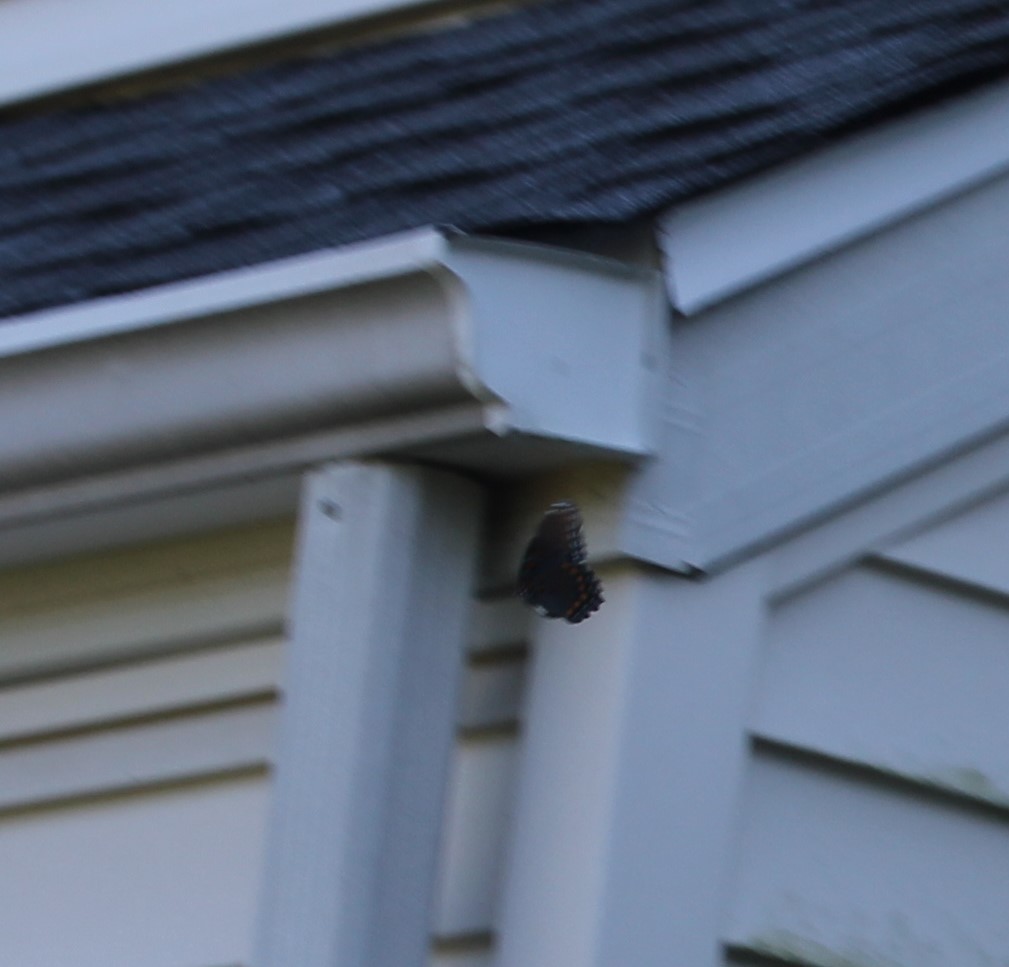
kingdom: Animalia
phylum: Arthropoda
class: Insecta
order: Lepidoptera
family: Nymphalidae
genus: Limenitis
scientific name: Limenitis astyanax
